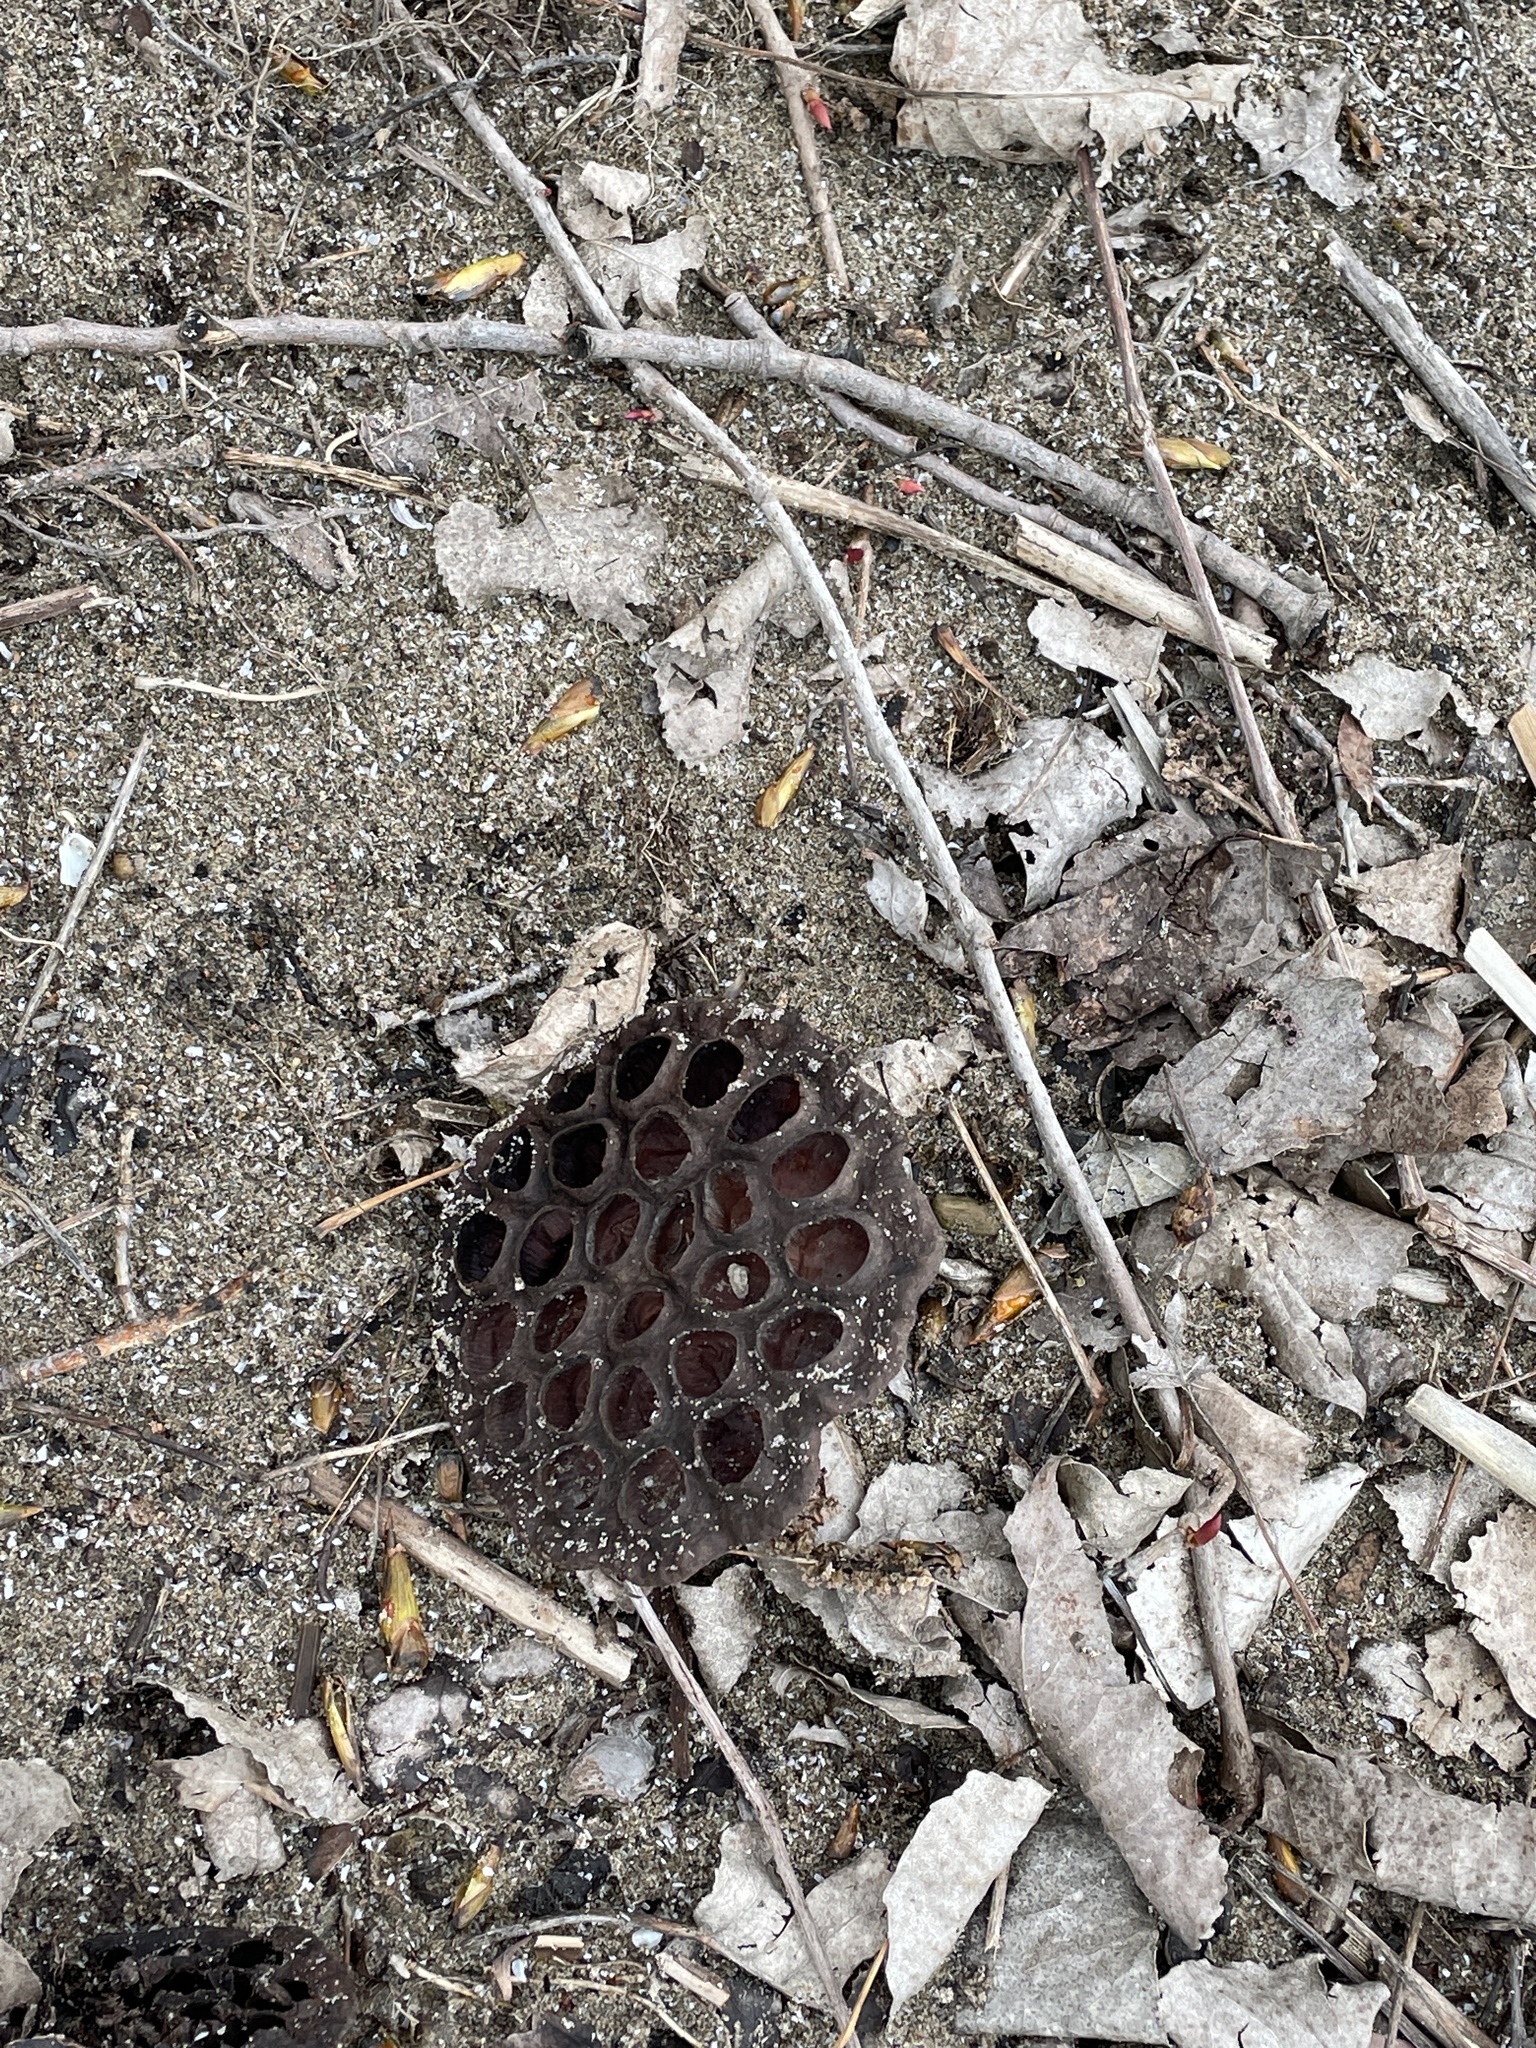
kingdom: Plantae
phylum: Tracheophyta
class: Magnoliopsida
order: Proteales
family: Nelumbonaceae
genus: Nelumbo
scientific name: Nelumbo lutea
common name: American lotus
